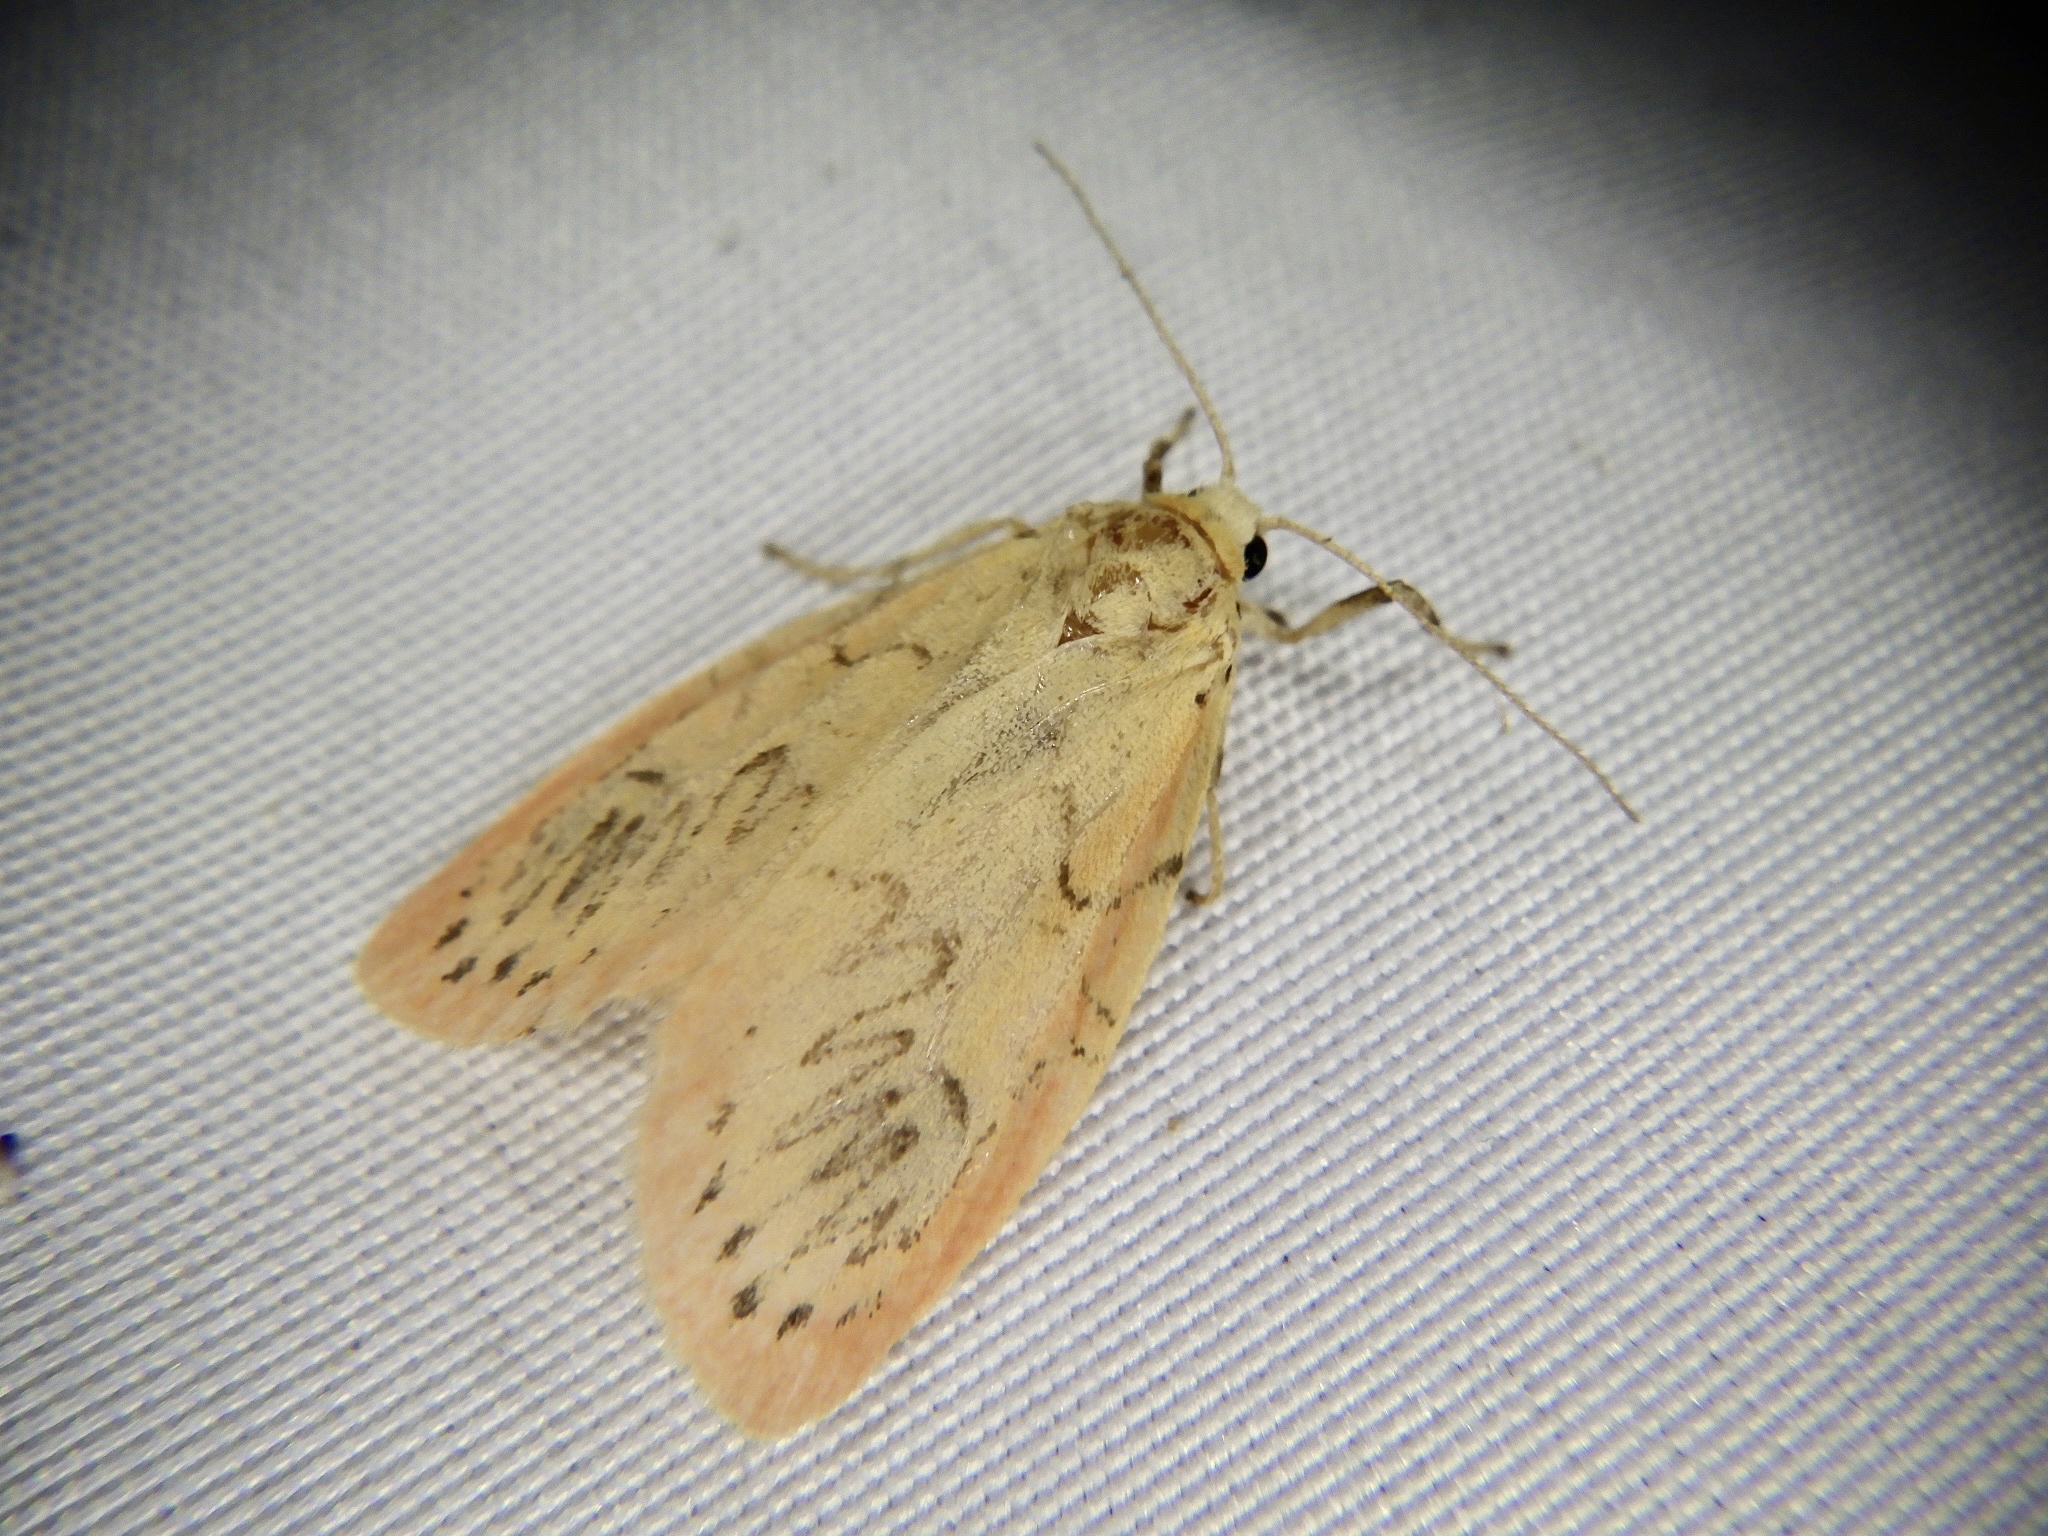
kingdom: Animalia
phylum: Arthropoda
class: Insecta
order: Lepidoptera
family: Erebidae
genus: Miltochrista
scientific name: Miltochrista miniata
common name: Rosy footman
